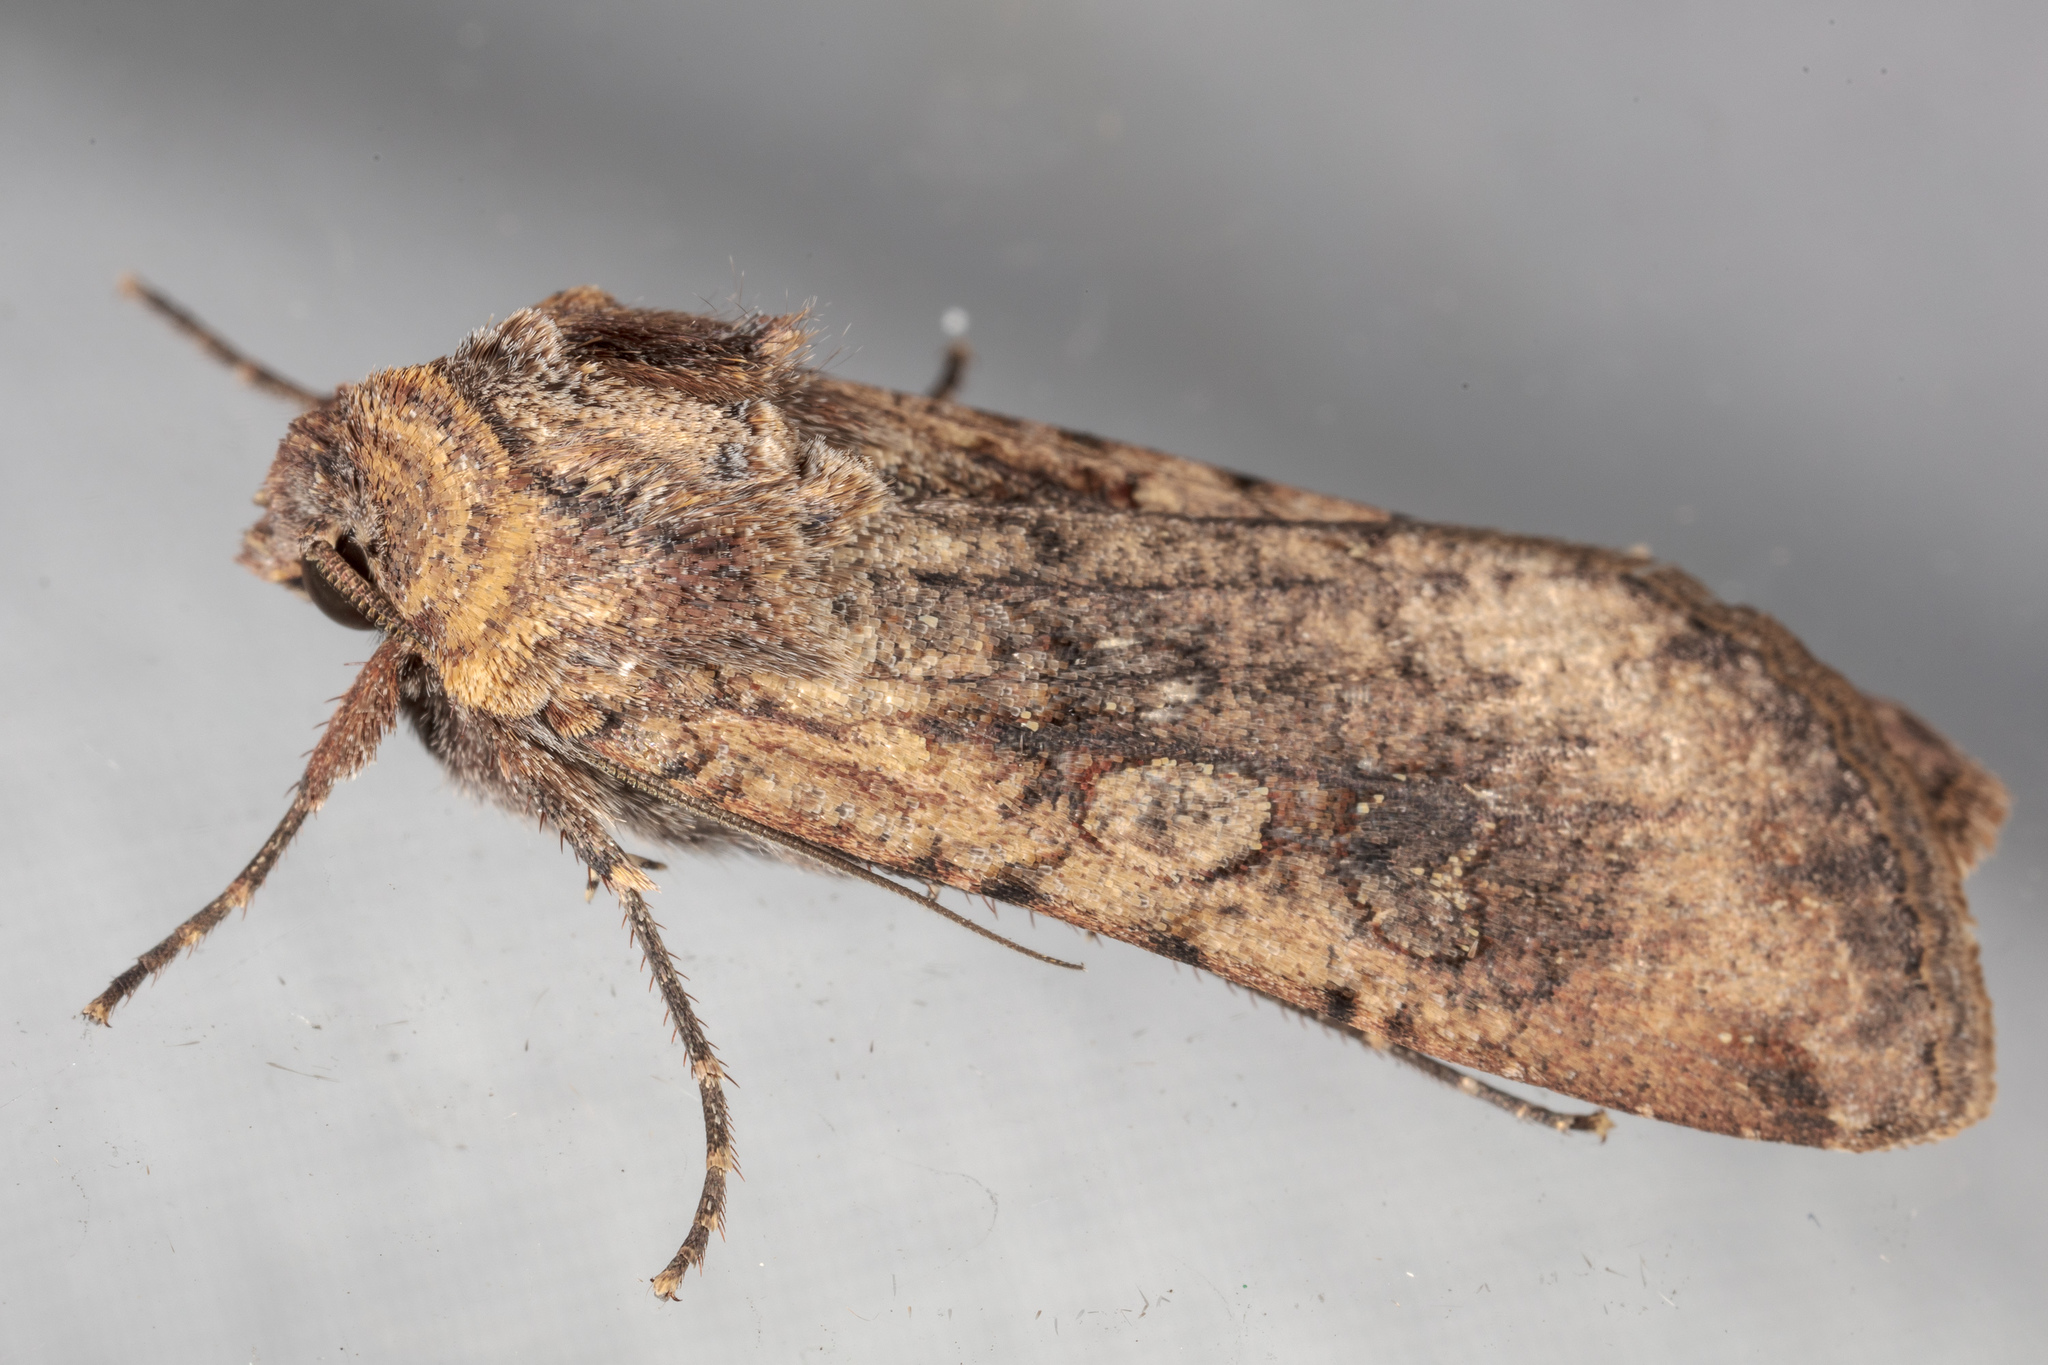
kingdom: Animalia
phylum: Arthropoda
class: Insecta
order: Lepidoptera
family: Noctuidae
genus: Peridroma
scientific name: Peridroma saucia
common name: Pearly underwing
